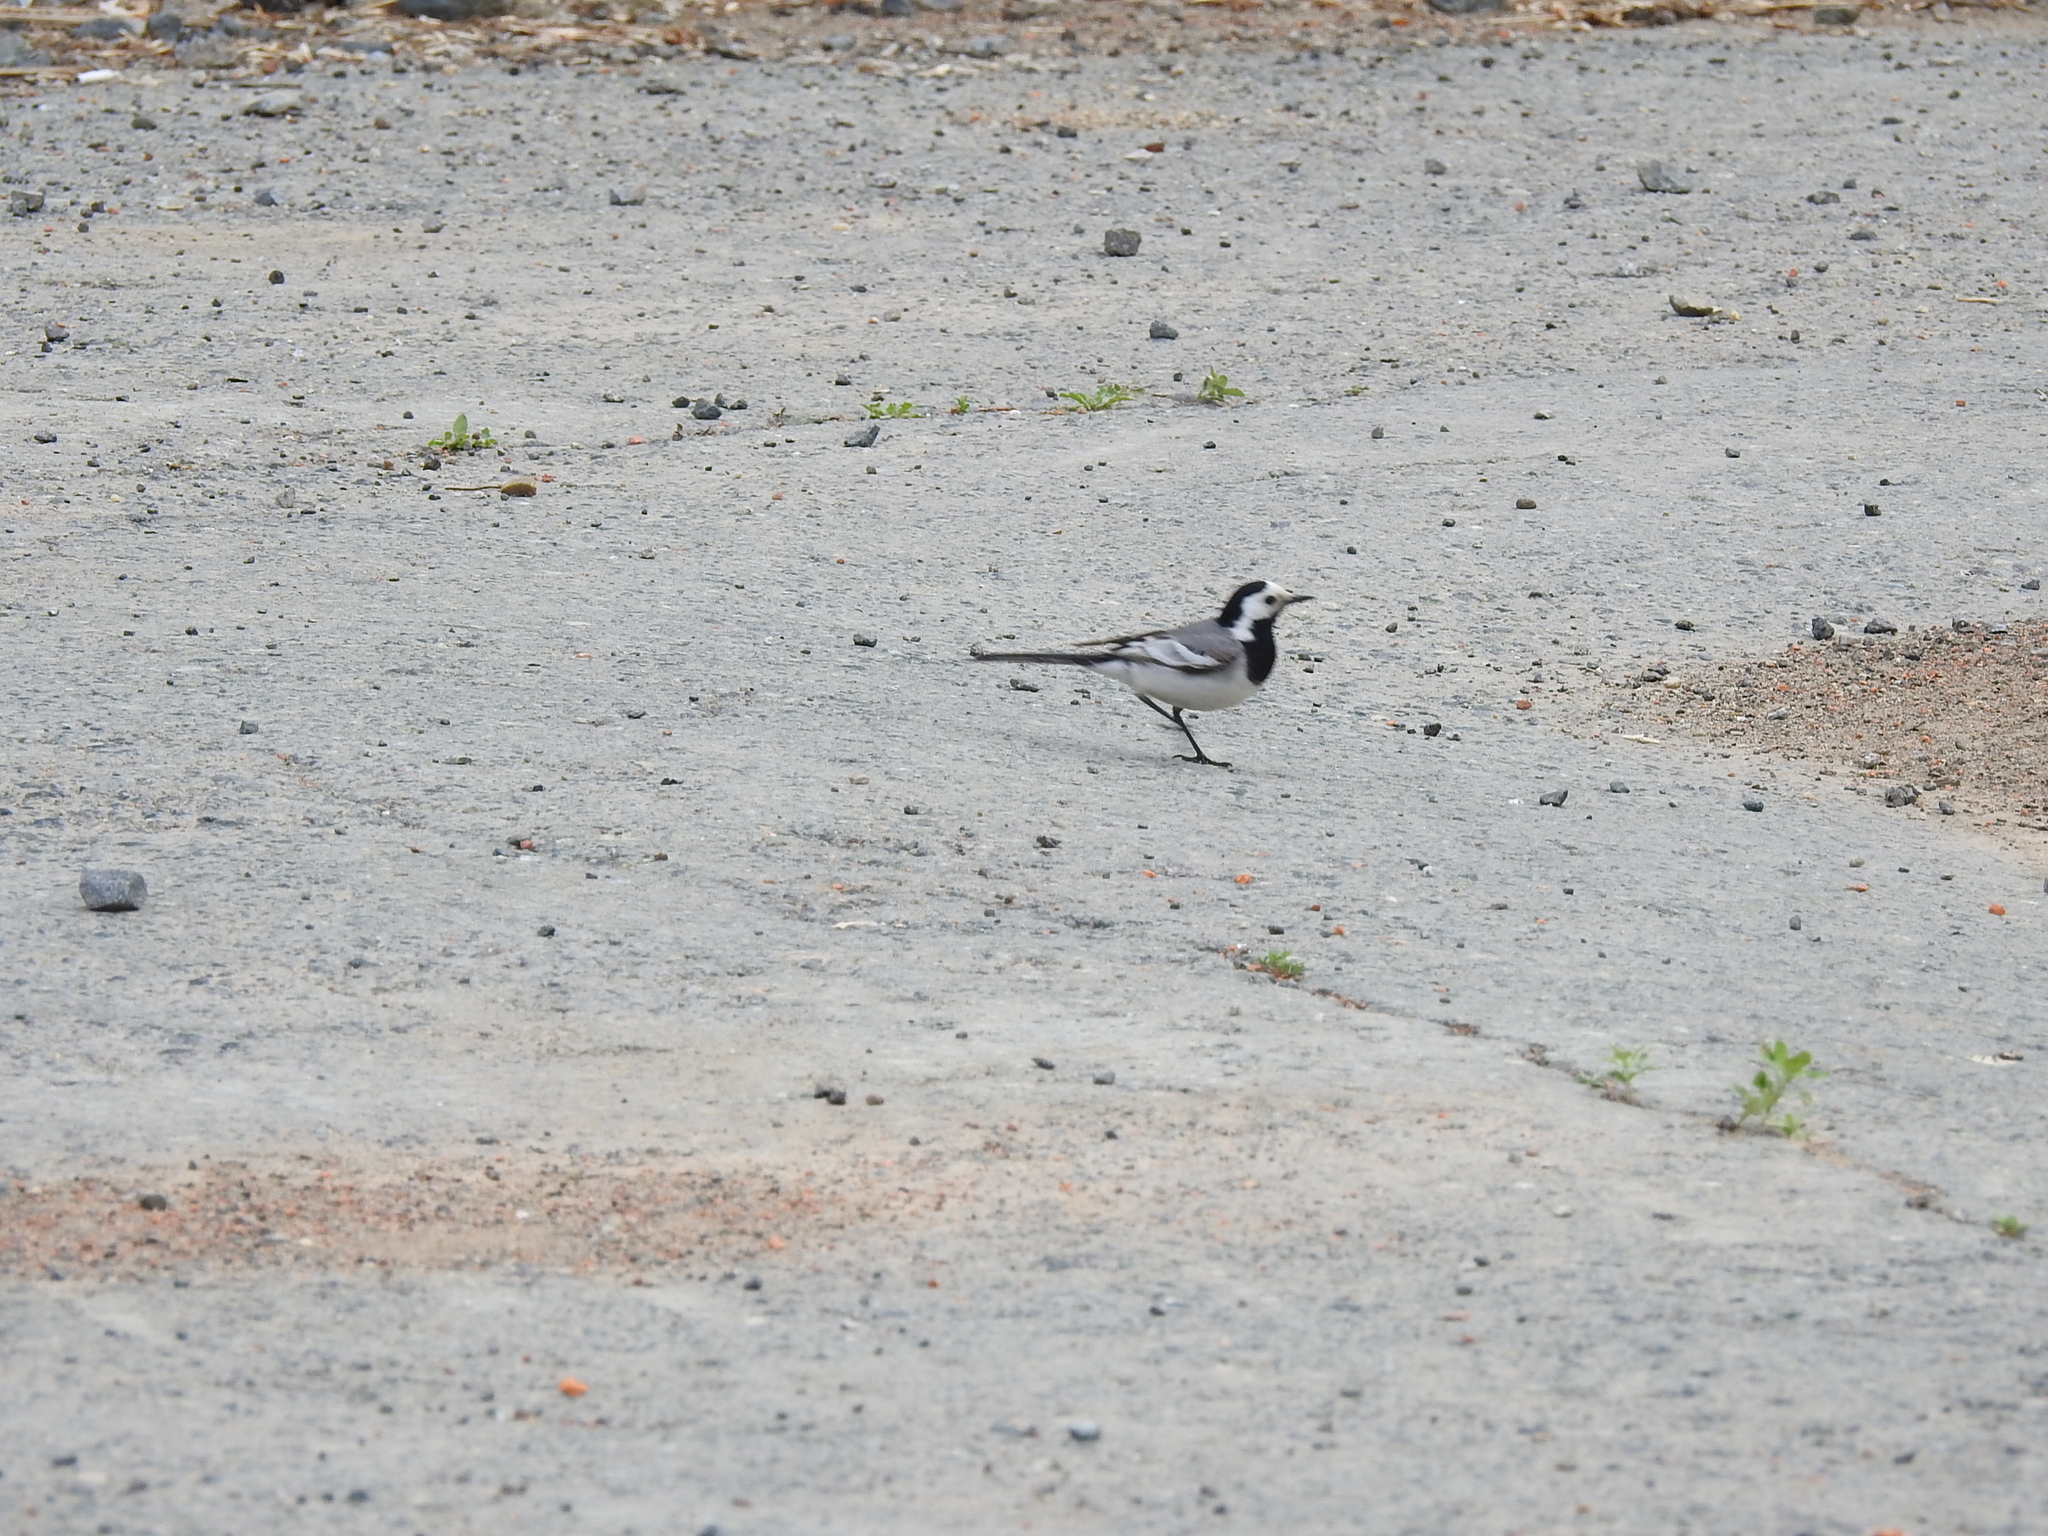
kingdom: Animalia
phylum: Chordata
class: Aves
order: Passeriformes
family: Motacillidae
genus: Motacilla
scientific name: Motacilla alba
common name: White wagtail
